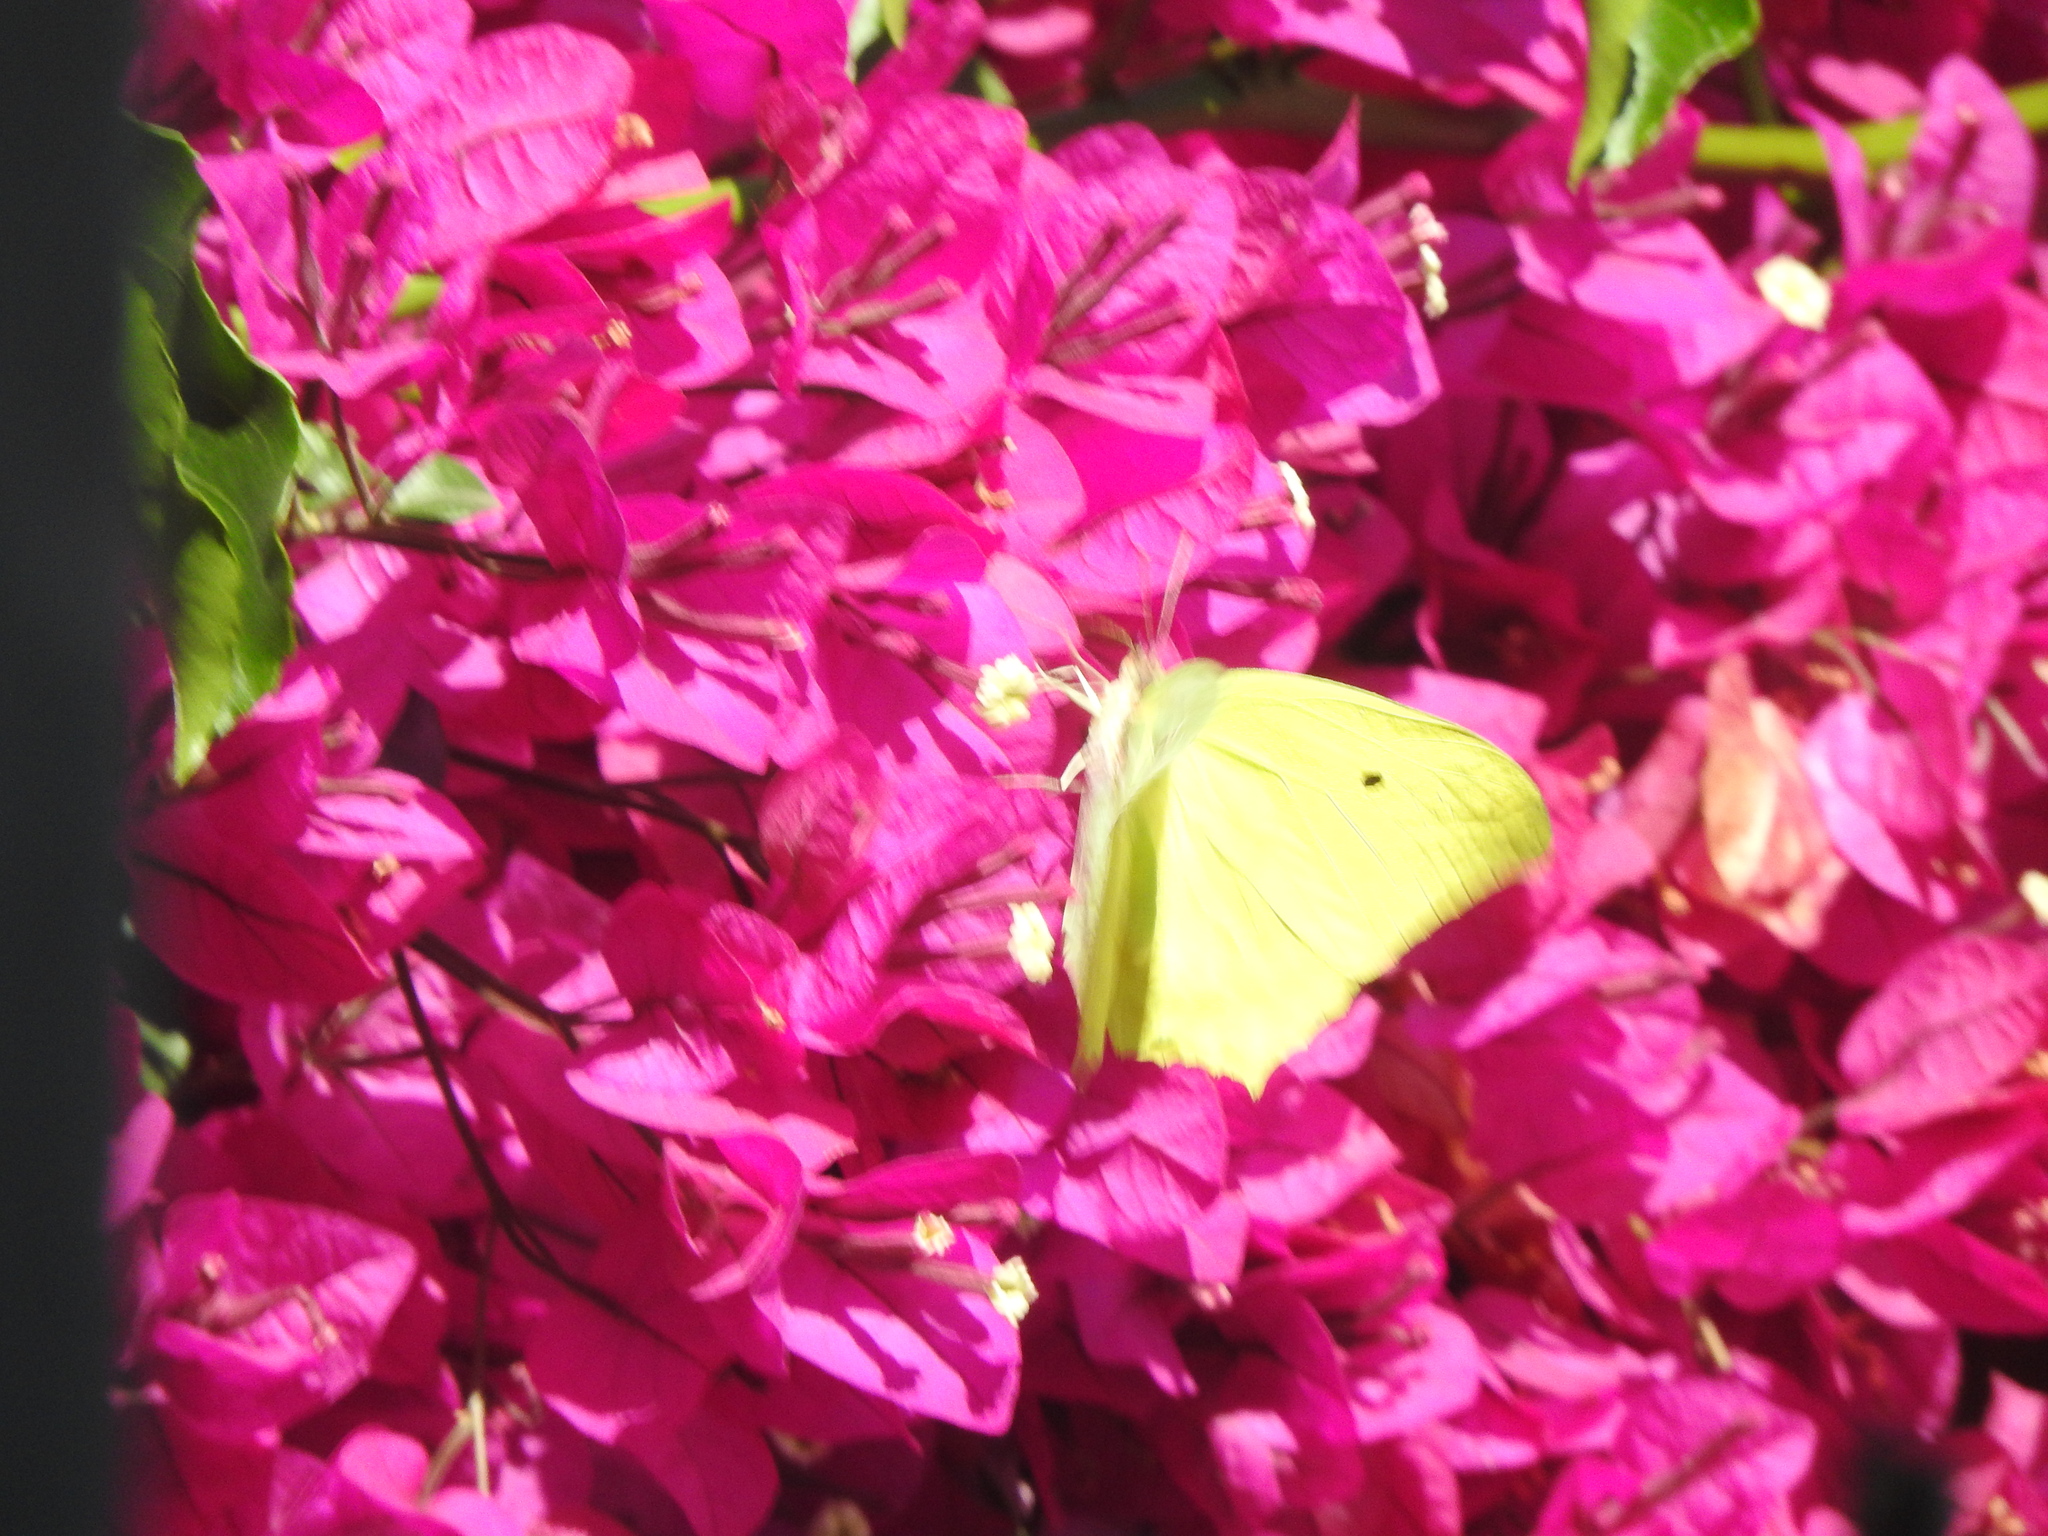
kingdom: Animalia
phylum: Arthropoda
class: Insecta
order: Lepidoptera
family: Pieridae
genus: Anteos
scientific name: Anteos maerula
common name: Angled sulphur
